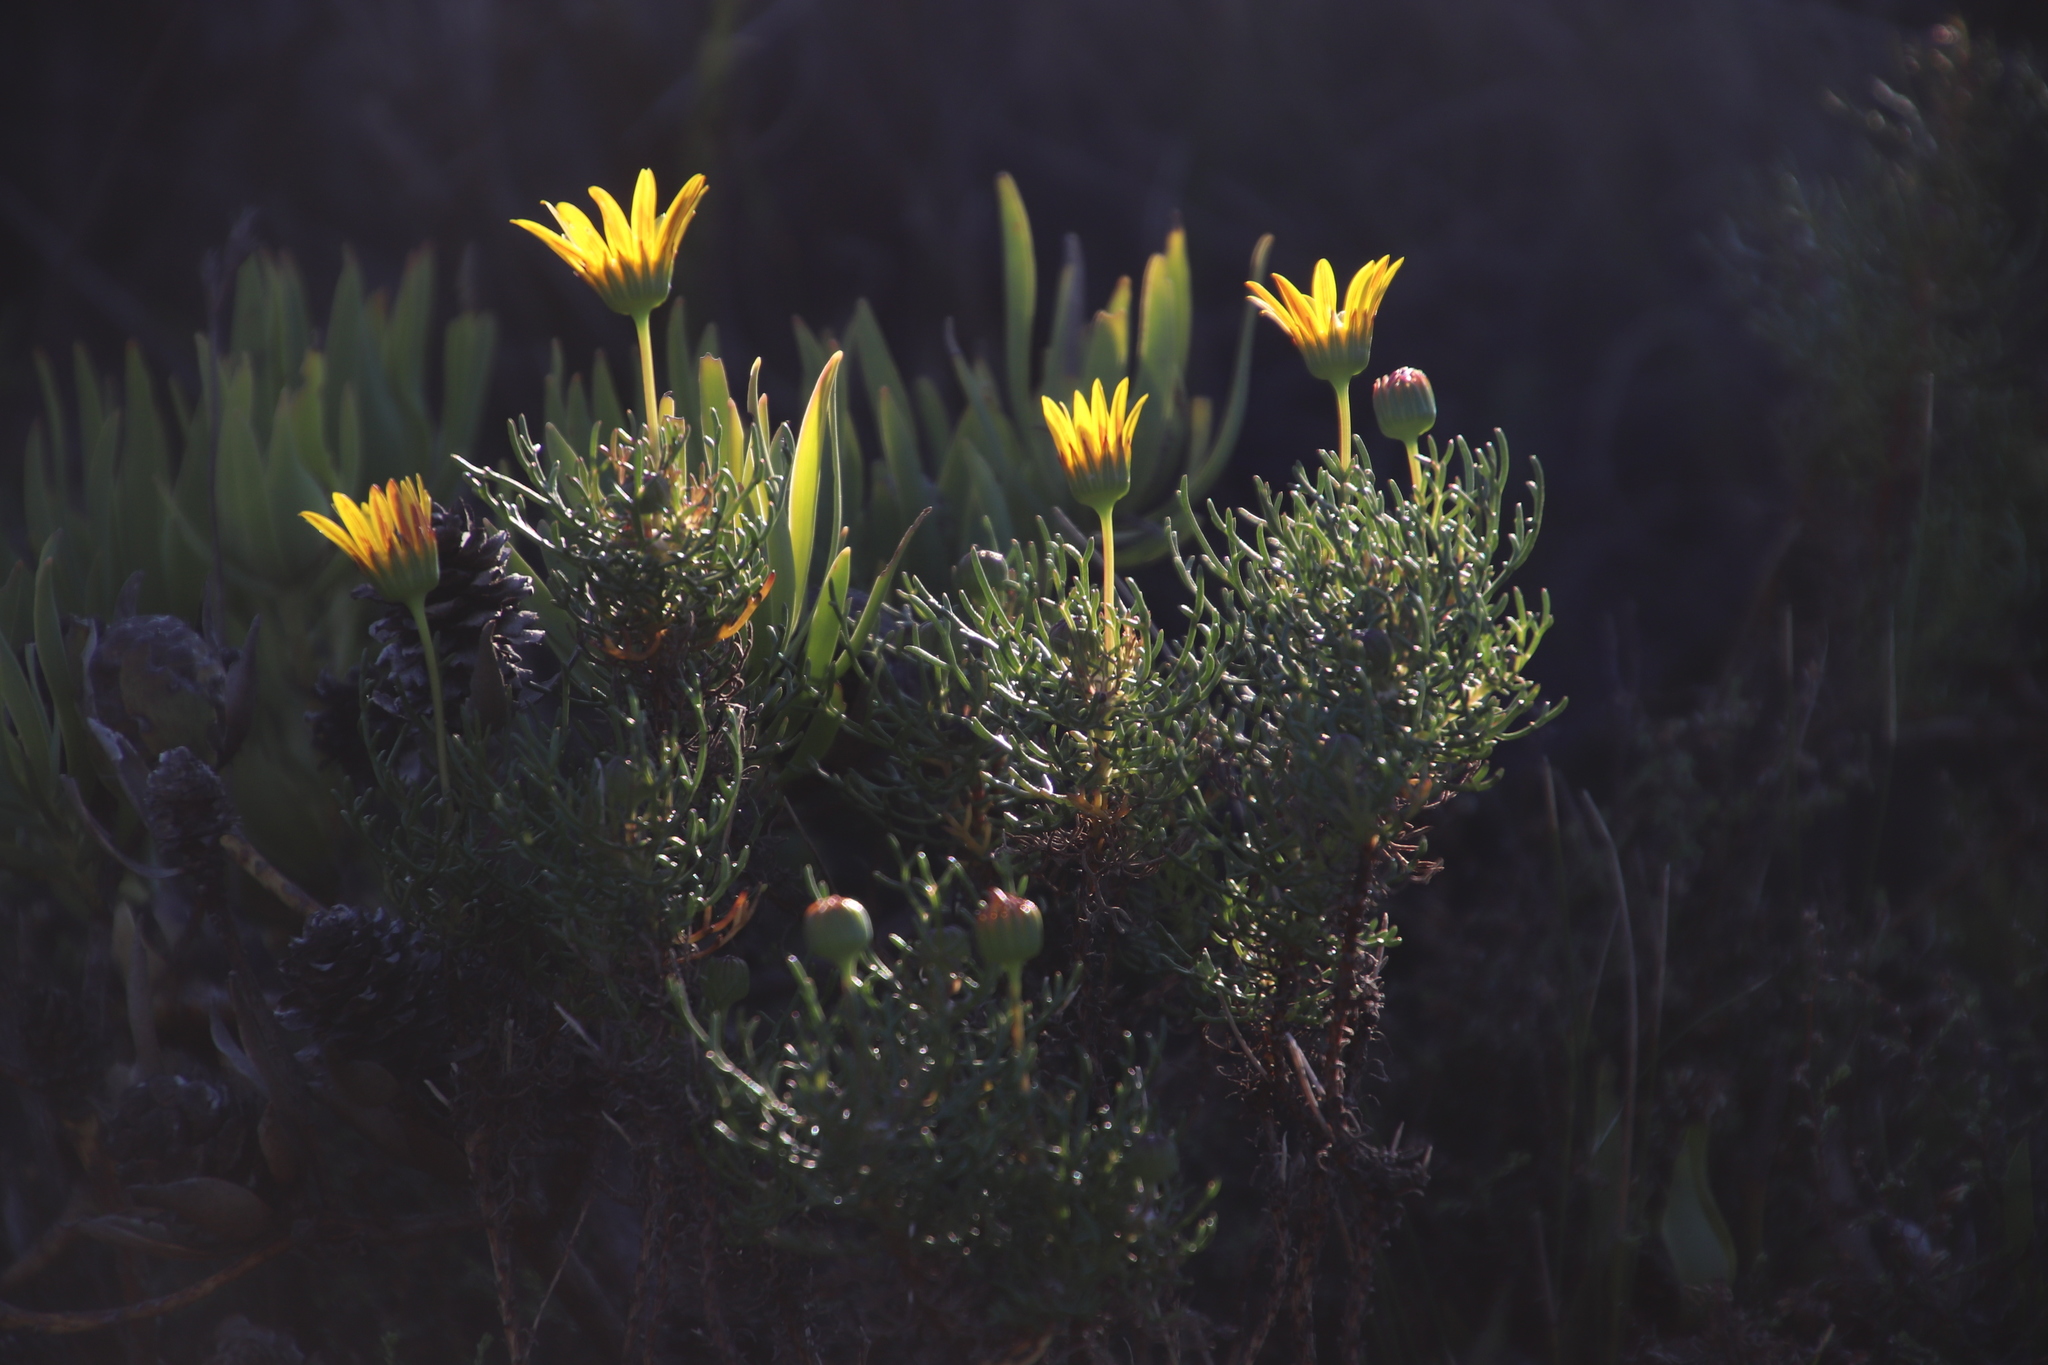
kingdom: Plantae
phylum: Tracheophyta
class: Magnoliopsida
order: Asterales
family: Asteraceae
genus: Euryops
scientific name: Euryops abrotanifolius
